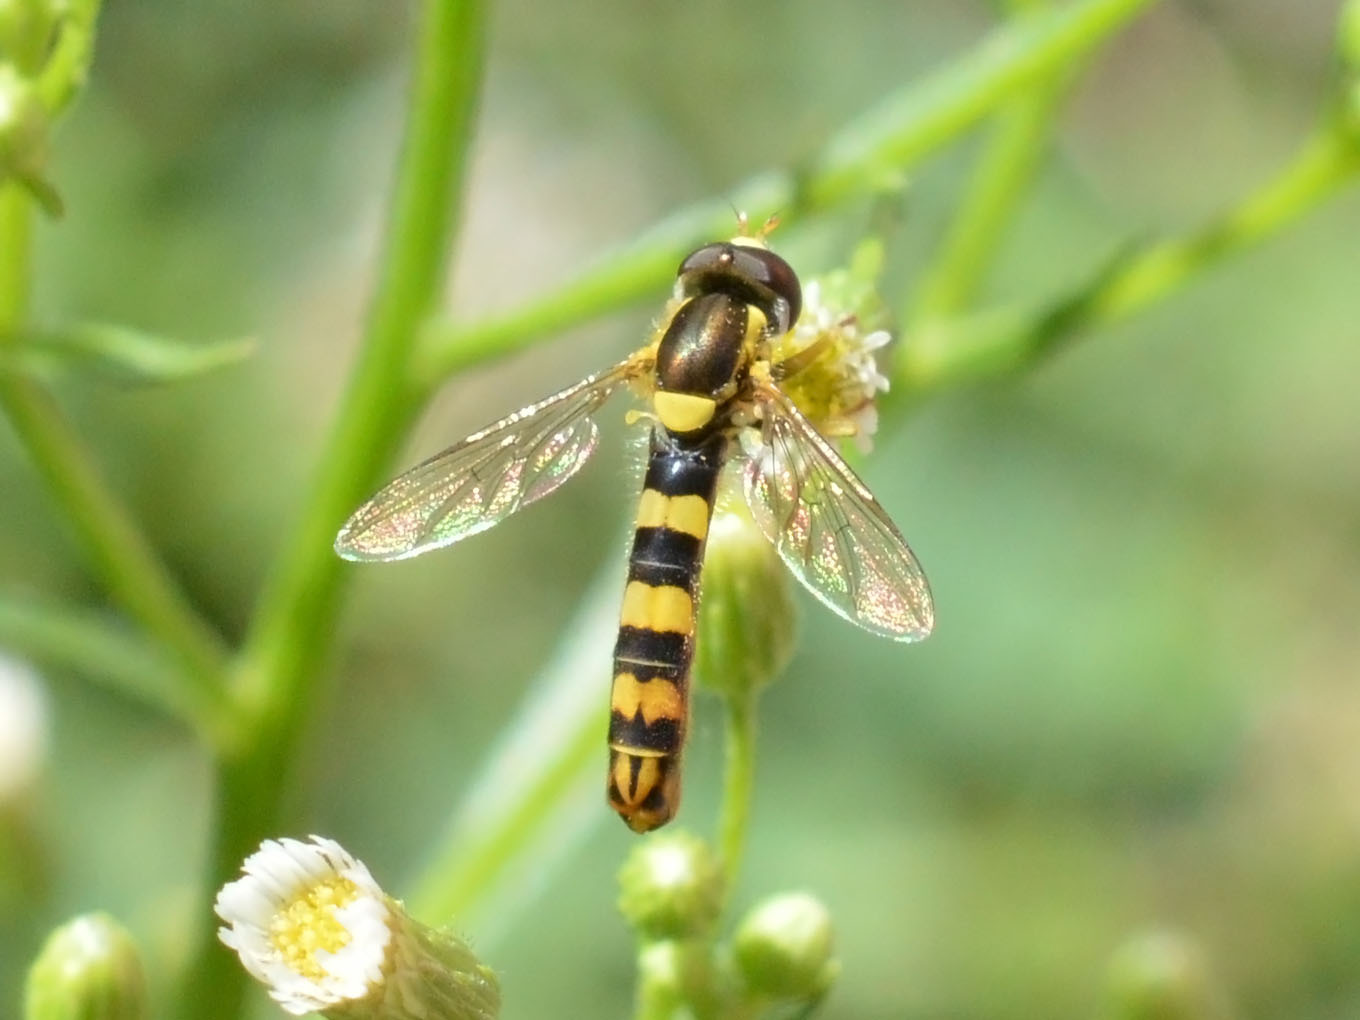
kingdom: Animalia
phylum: Arthropoda
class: Insecta
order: Diptera
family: Syrphidae
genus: Sphaerophoria
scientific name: Sphaerophoria scripta
